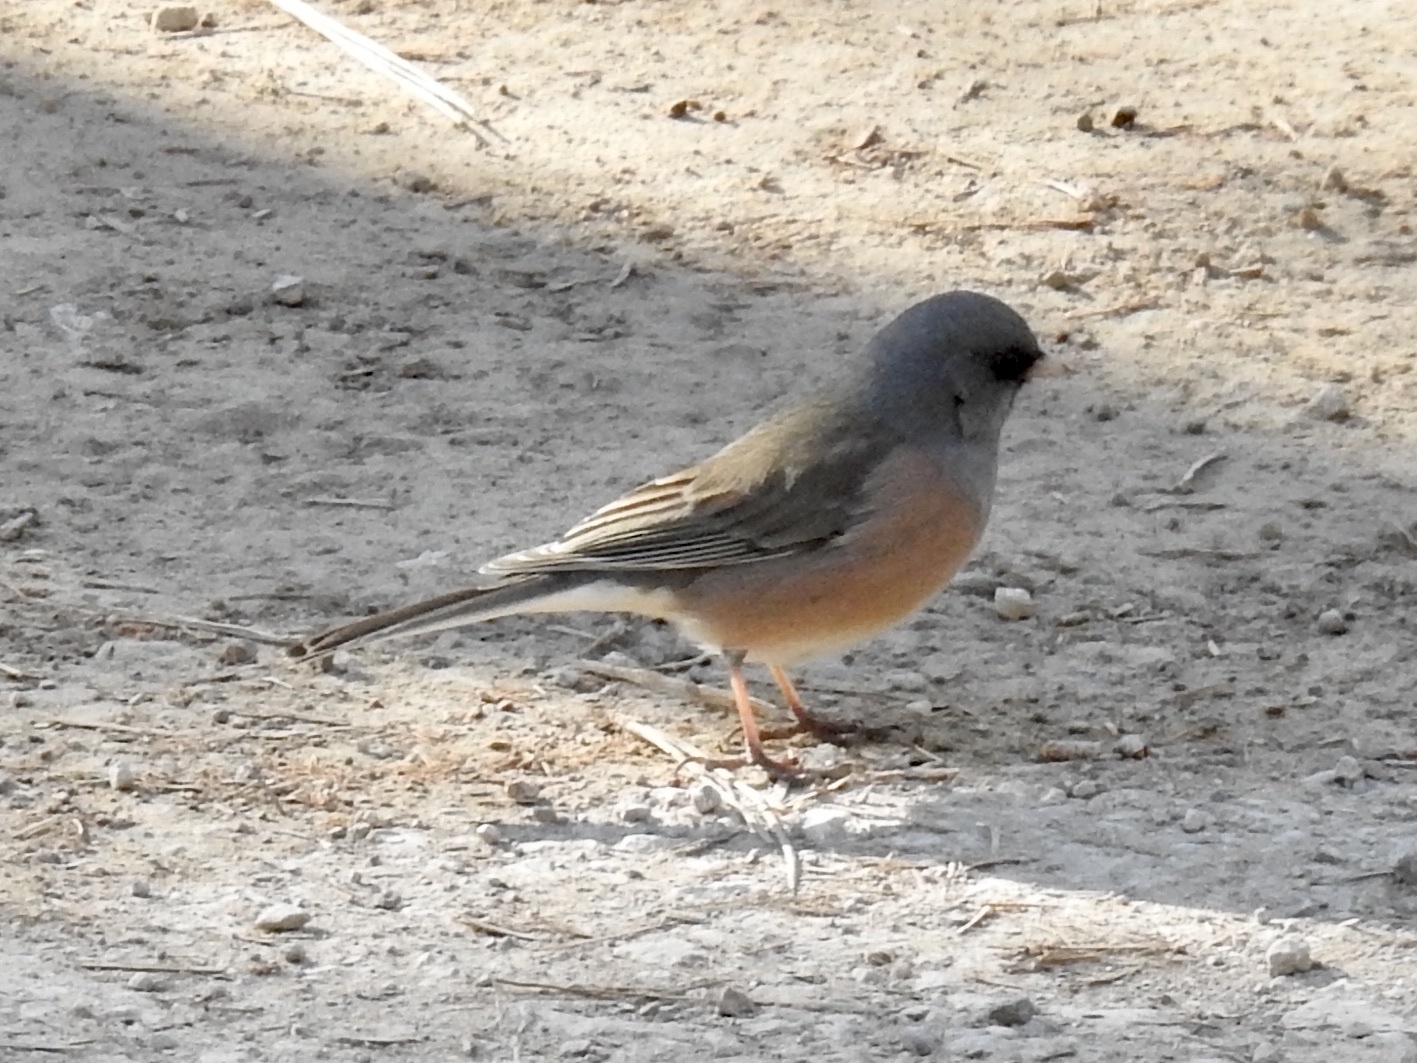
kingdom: Animalia
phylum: Chordata
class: Aves
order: Passeriformes
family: Passerellidae
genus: Junco
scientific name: Junco hyemalis
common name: Dark-eyed junco
